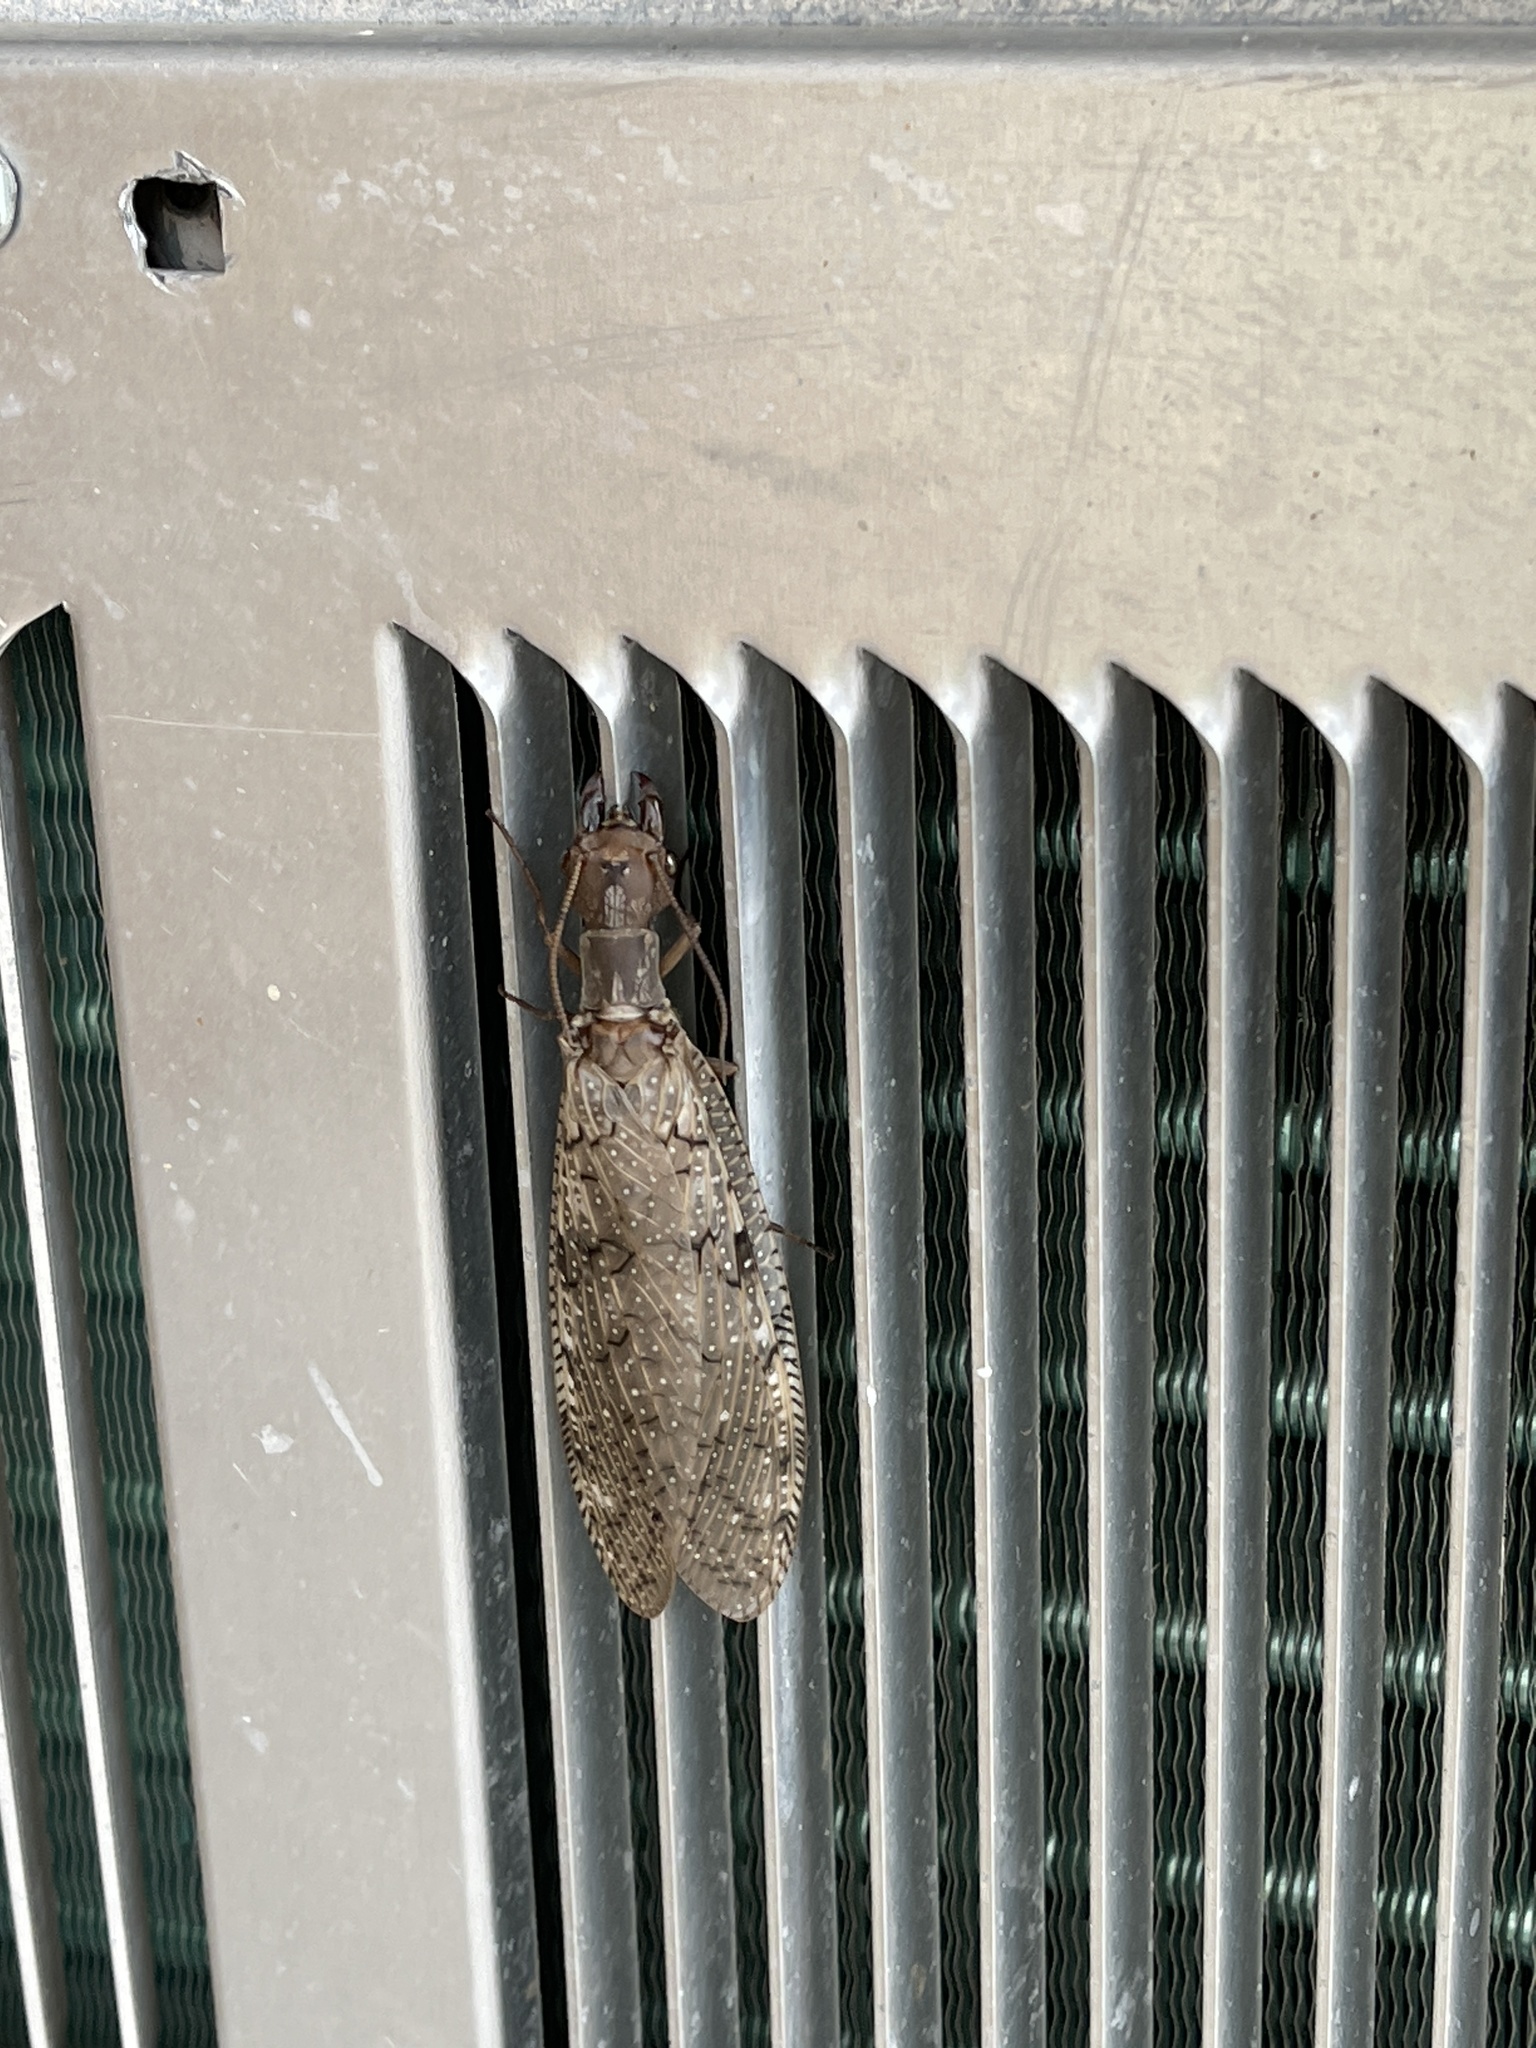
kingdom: Animalia
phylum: Arthropoda
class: Insecta
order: Megaloptera
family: Corydalidae
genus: Corydalus
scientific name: Corydalus cornutus
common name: Dobsonfly
